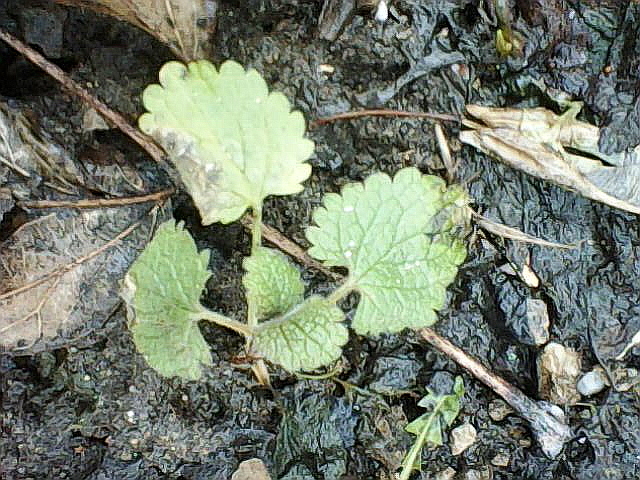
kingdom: Plantae
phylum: Tracheophyta
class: Magnoliopsida
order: Lamiales
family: Lamiaceae
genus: Lamium
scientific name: Lamium album
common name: White dead-nettle
